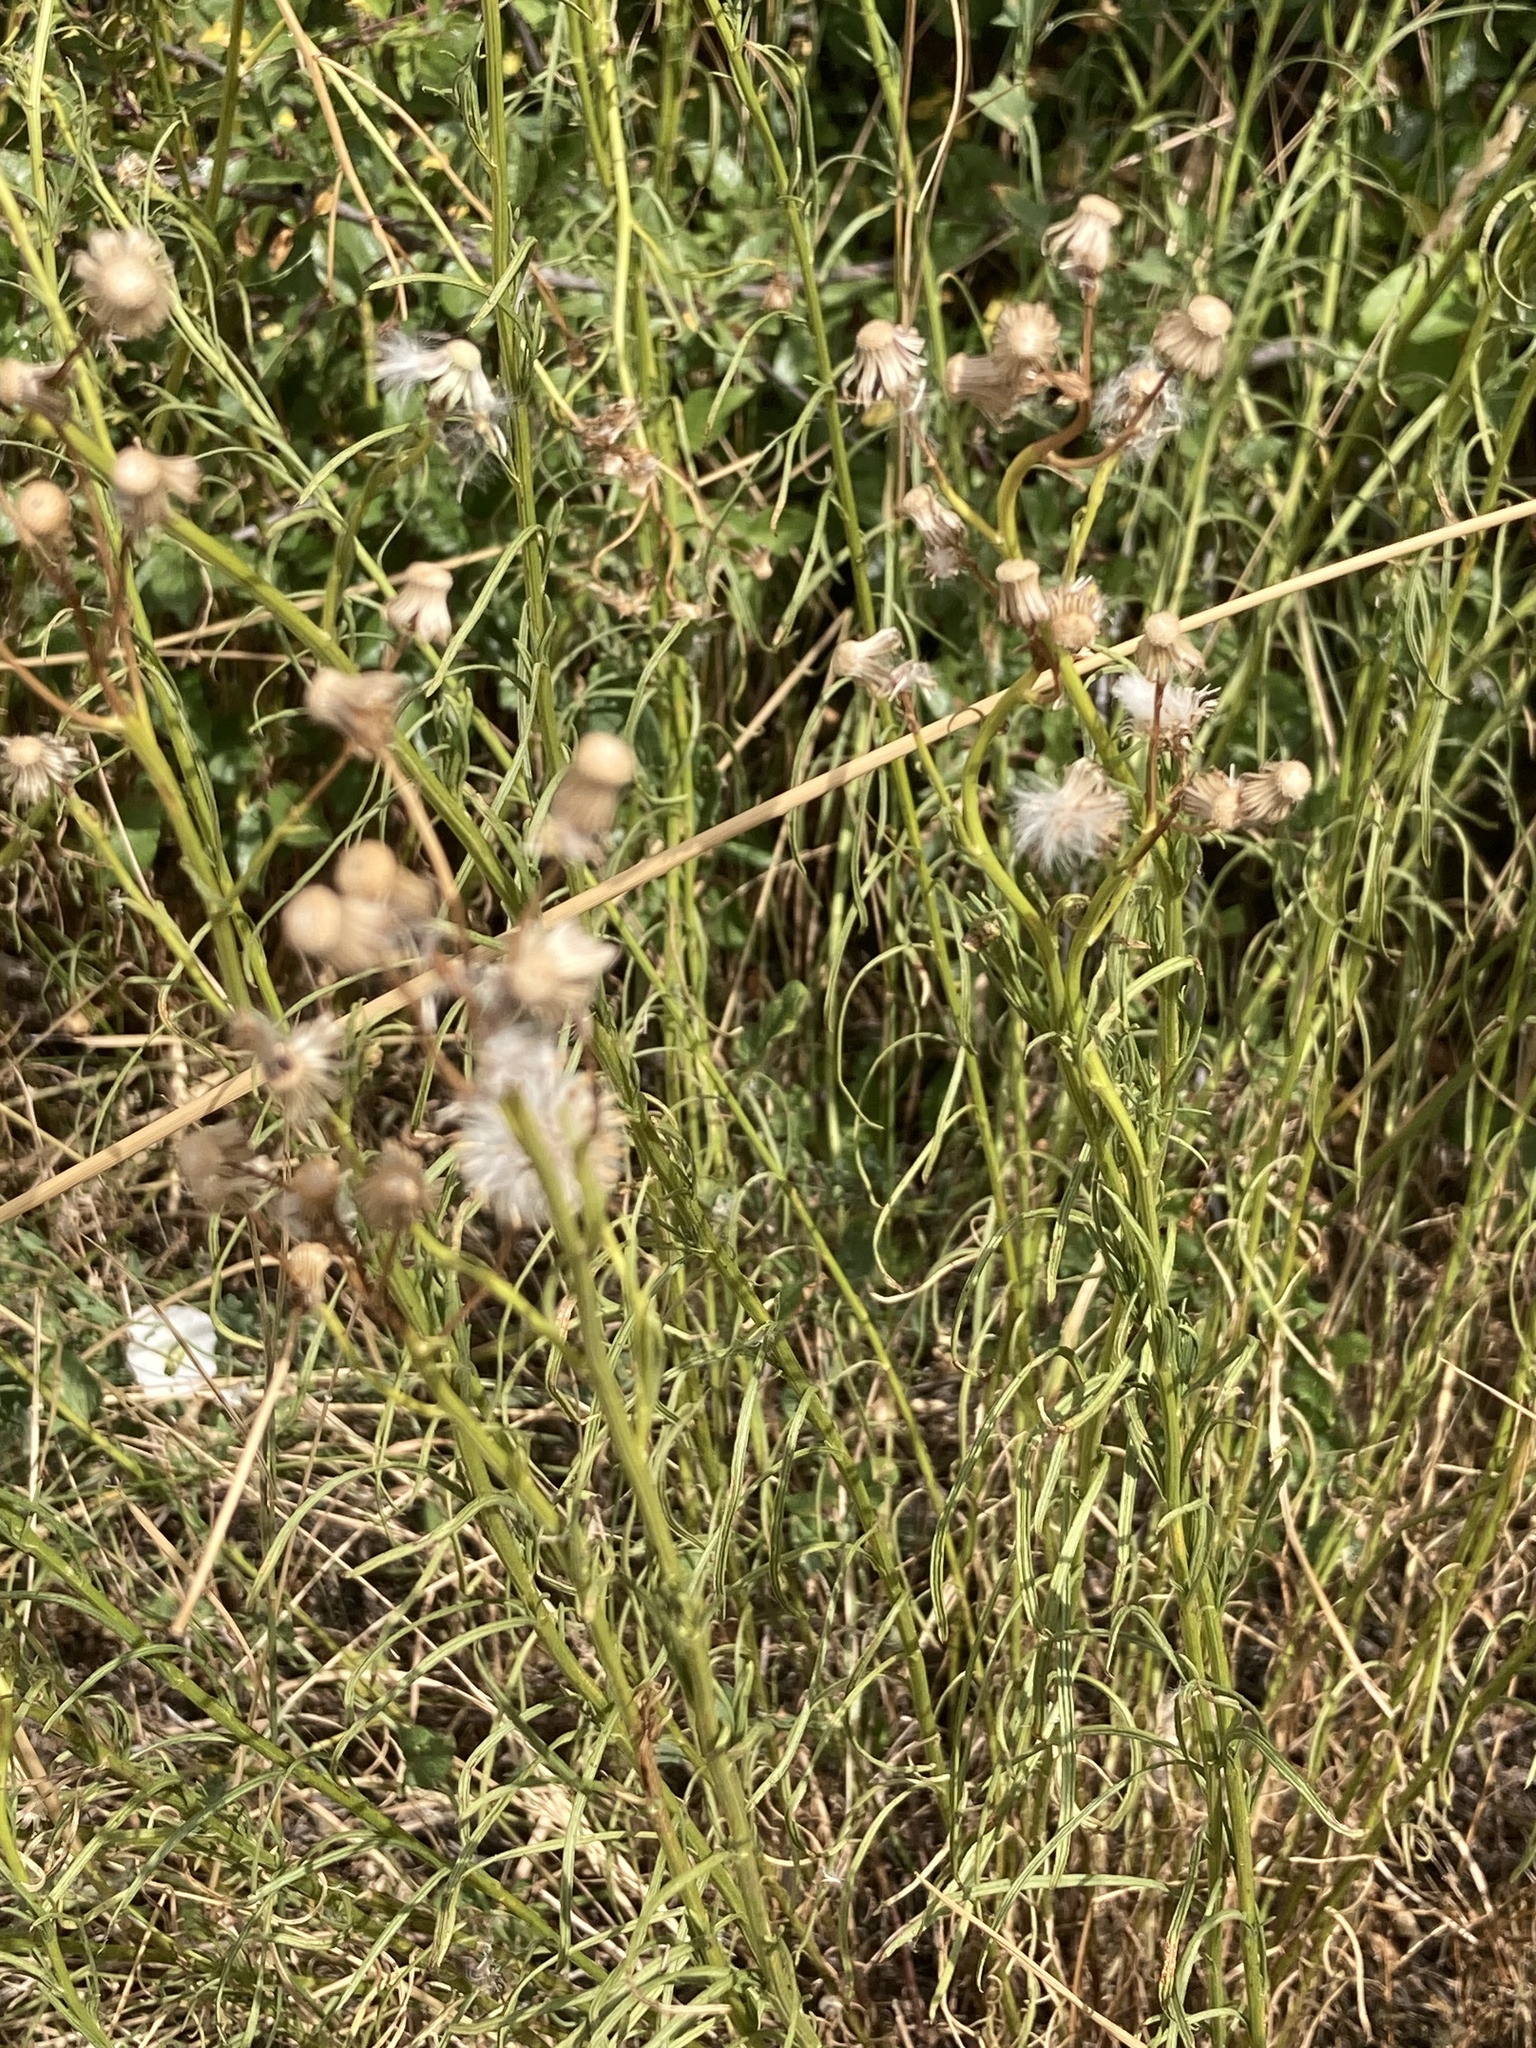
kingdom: Plantae
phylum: Tracheophyta
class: Magnoliopsida
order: Asterales
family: Asteraceae
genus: Senecio
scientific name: Senecio inaequidens
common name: Narrow-leaved ragwort
